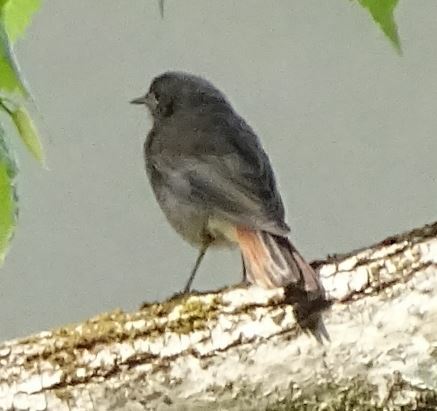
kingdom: Animalia
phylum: Chordata
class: Aves
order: Passeriformes
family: Muscicapidae
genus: Phoenicurus
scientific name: Phoenicurus ochruros
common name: Black redstart
